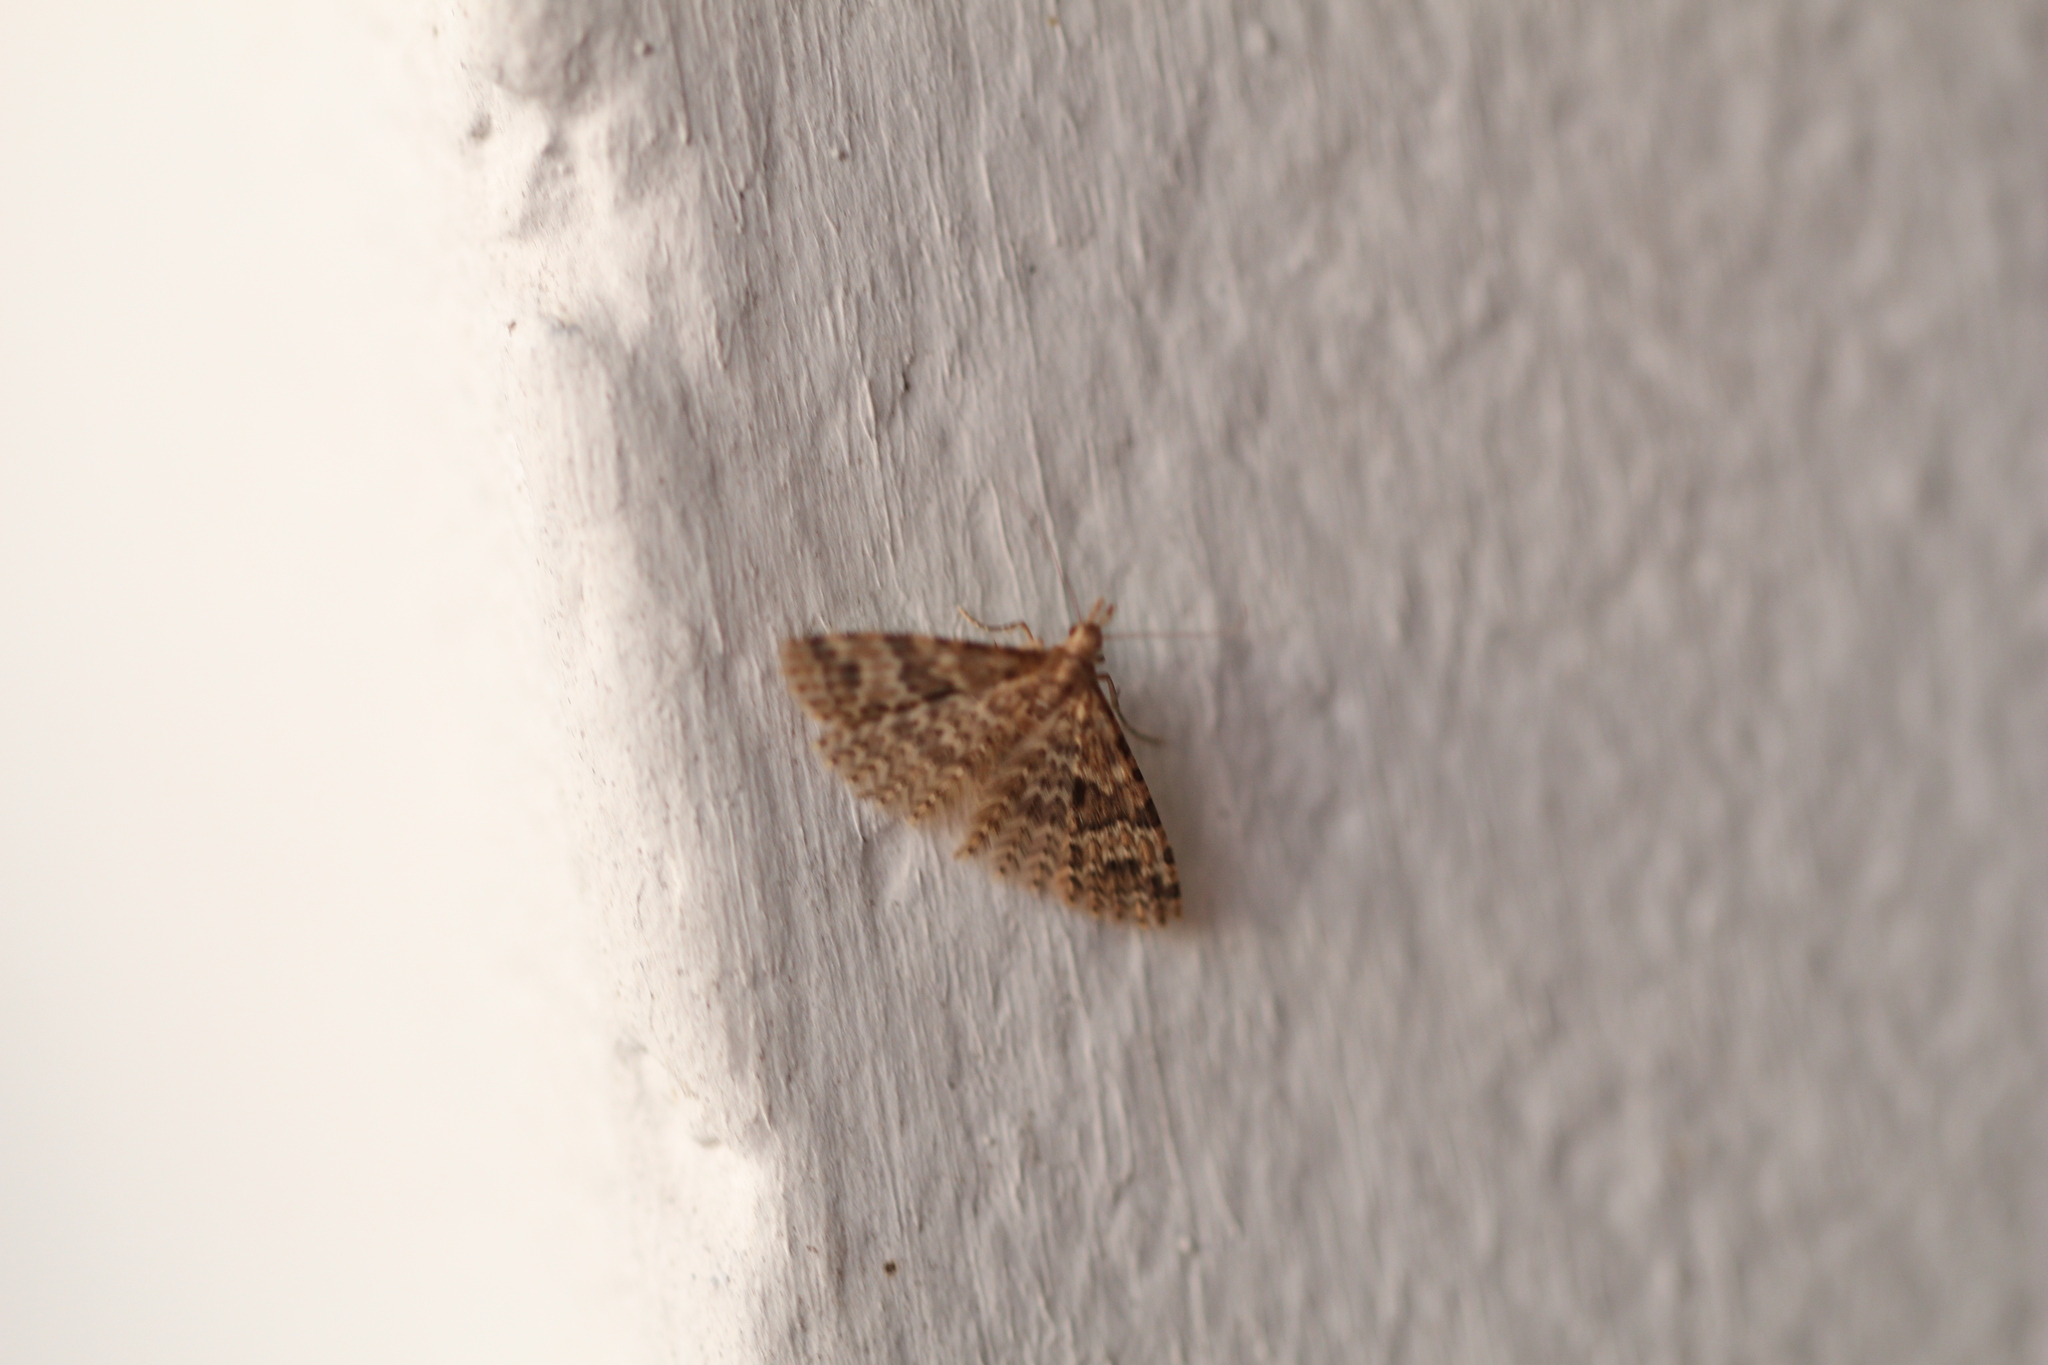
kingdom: Animalia
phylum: Arthropoda
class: Insecta
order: Lepidoptera
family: Alucitidae
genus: Alucita
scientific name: Alucita hexadactyla
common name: Twenty-plume moth
